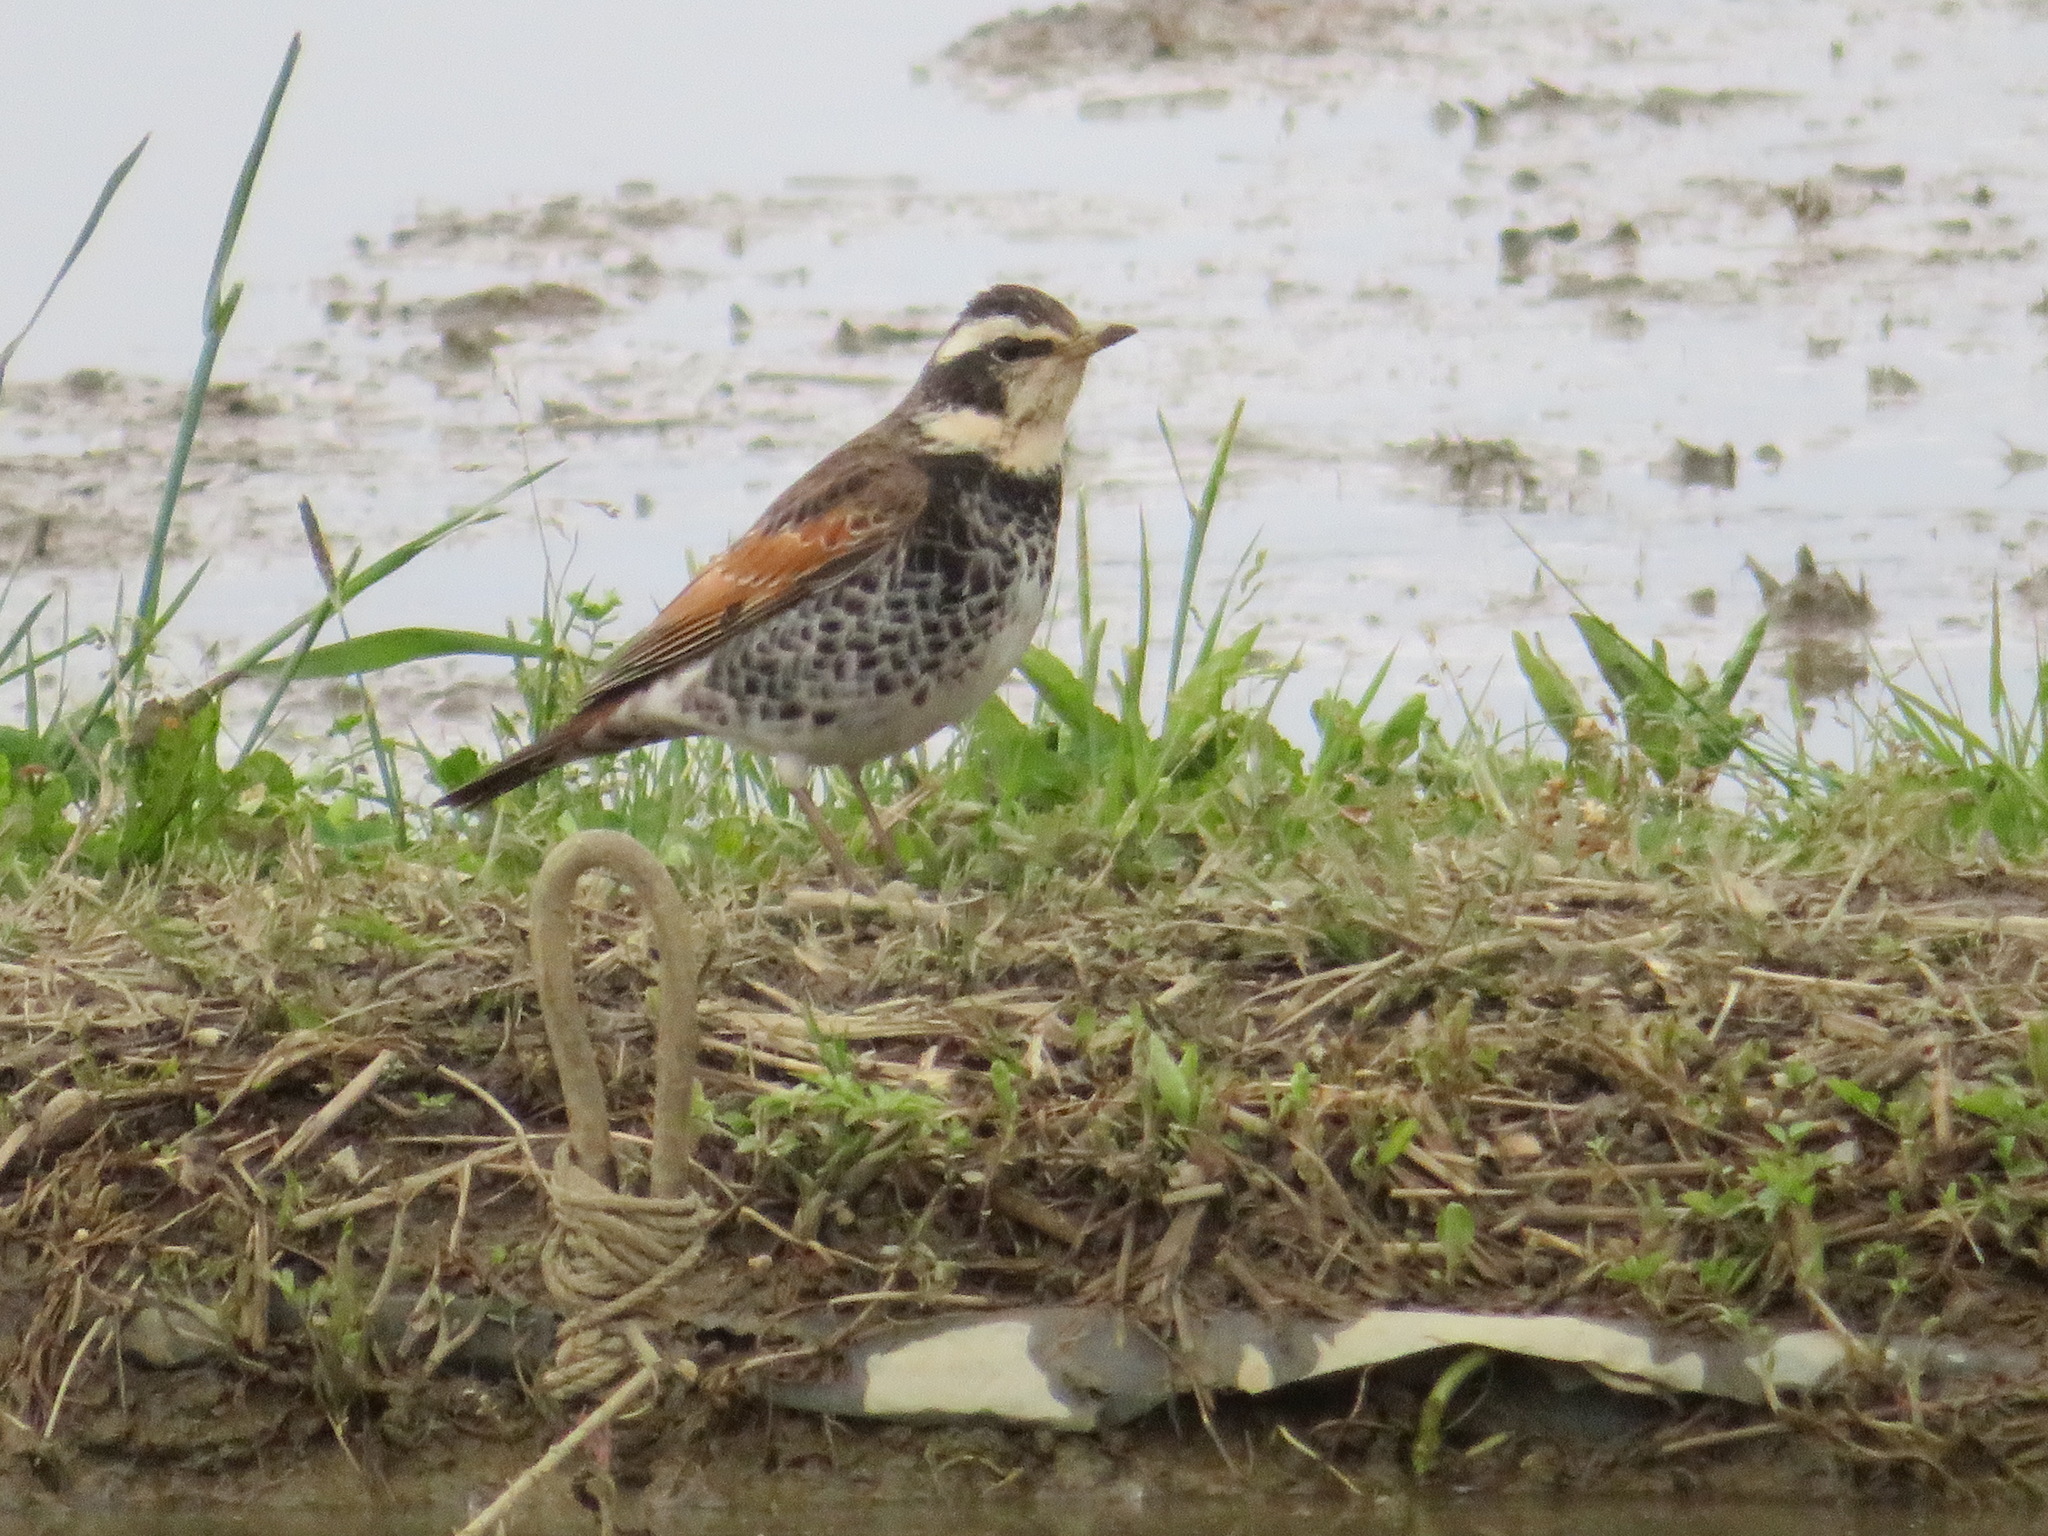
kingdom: Animalia
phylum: Chordata
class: Aves
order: Passeriformes
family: Turdidae
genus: Turdus
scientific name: Turdus eunomus
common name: Dusky thrush
